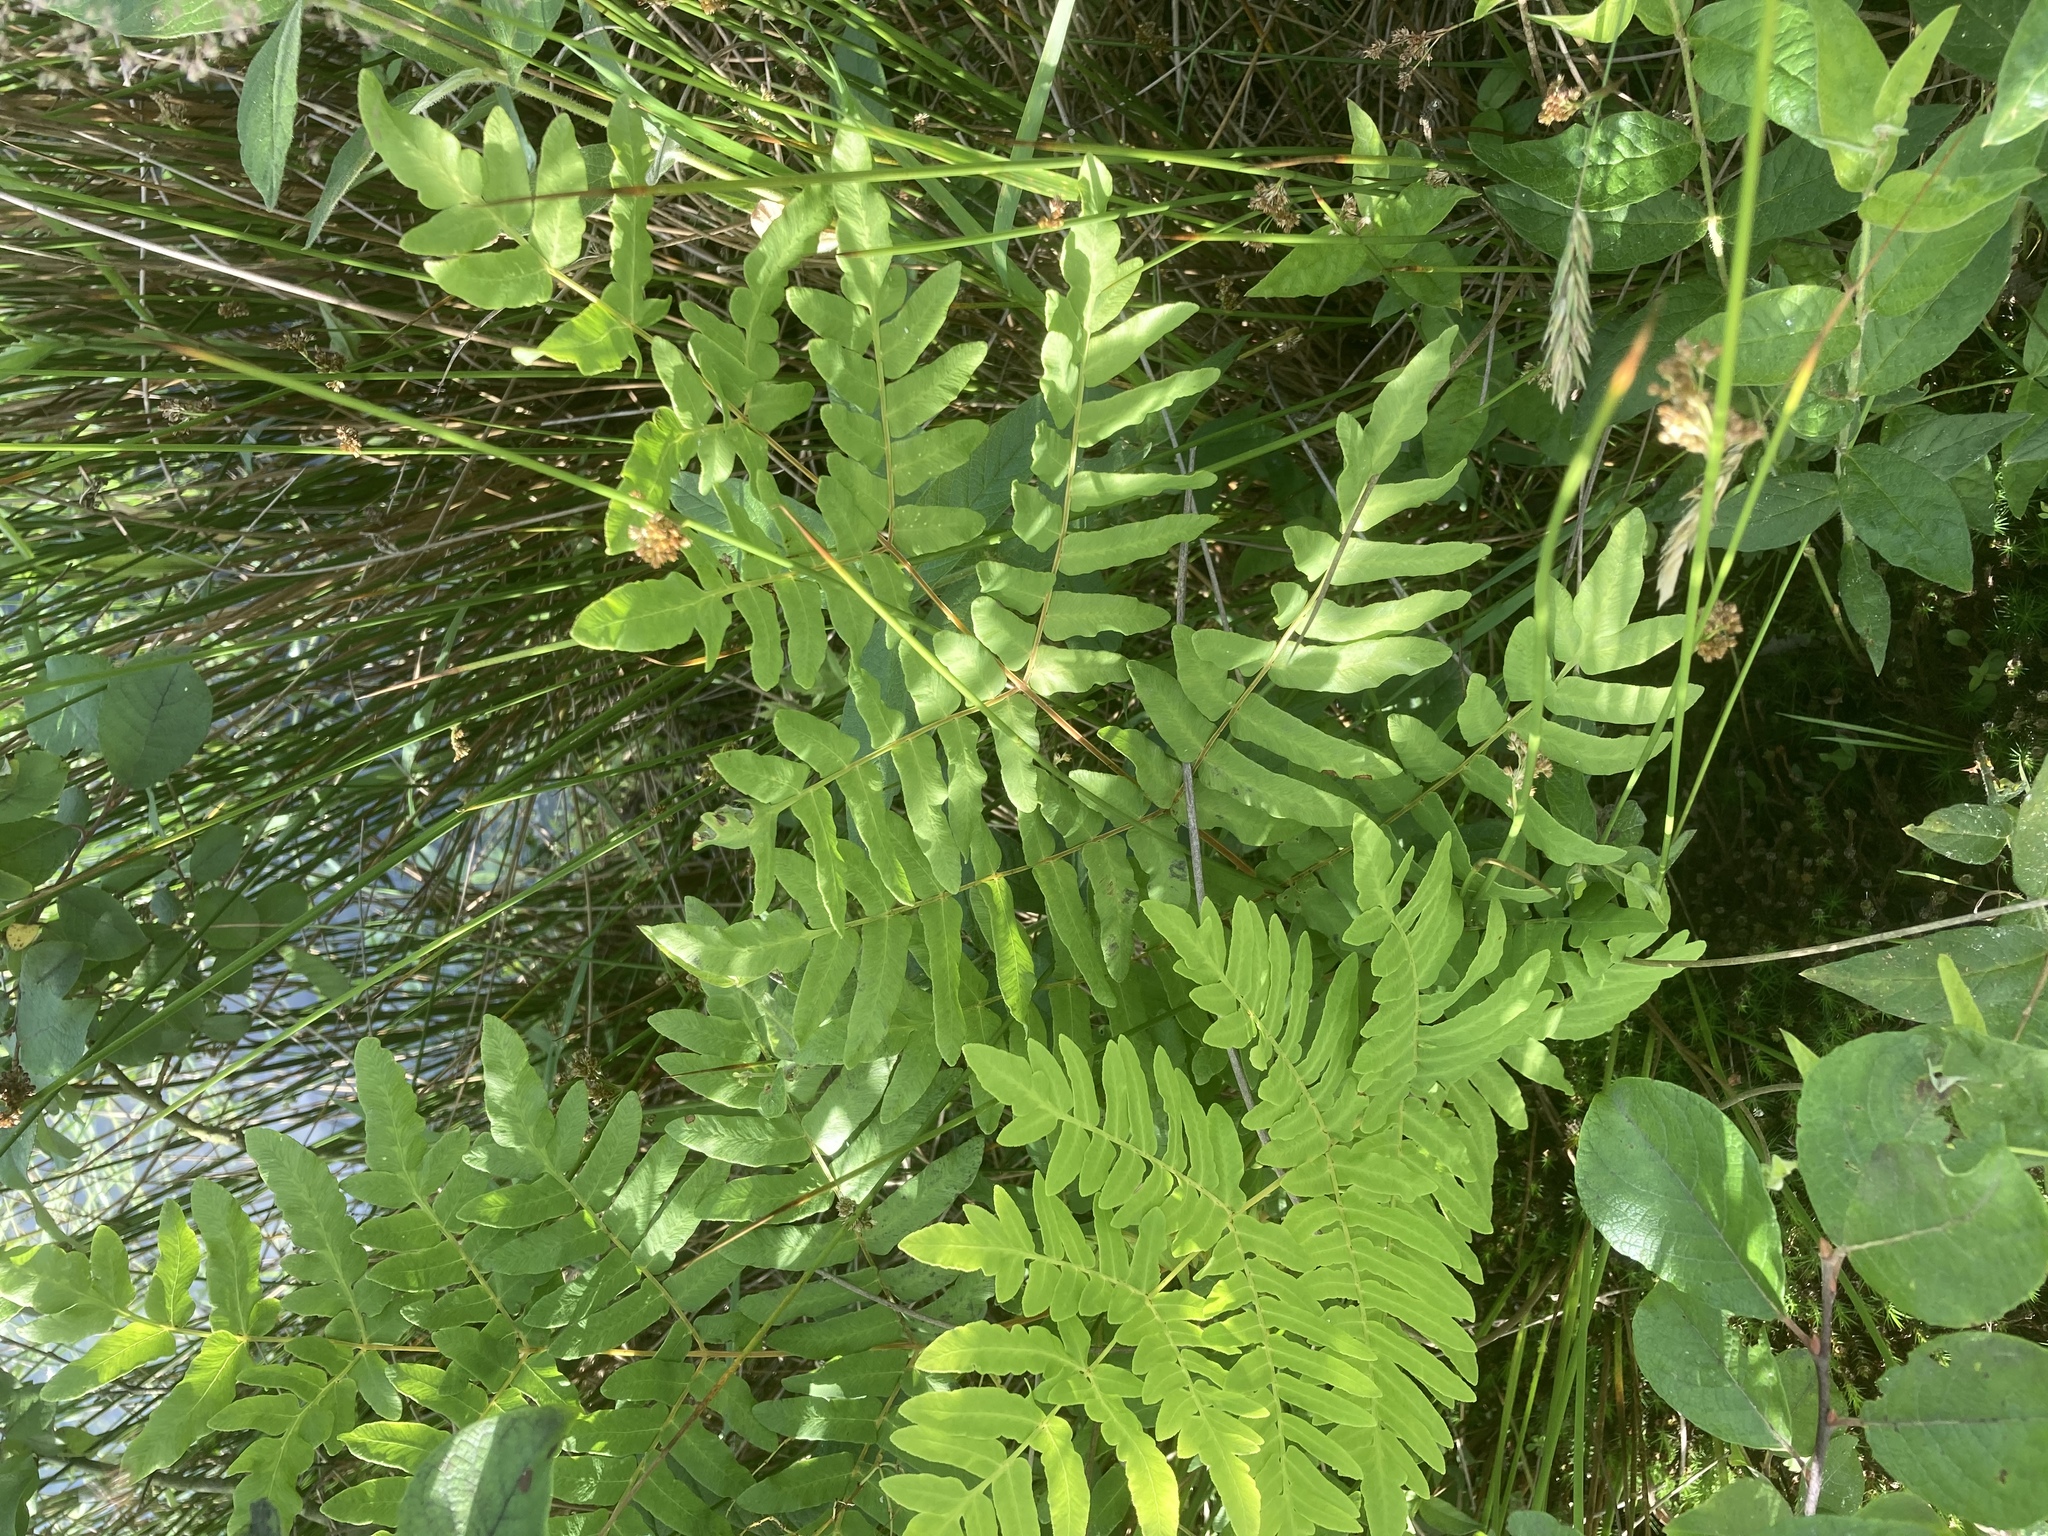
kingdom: Plantae
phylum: Tracheophyta
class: Polypodiopsida
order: Osmundales
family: Osmundaceae
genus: Osmunda
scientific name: Osmunda regalis
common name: Royal fern
